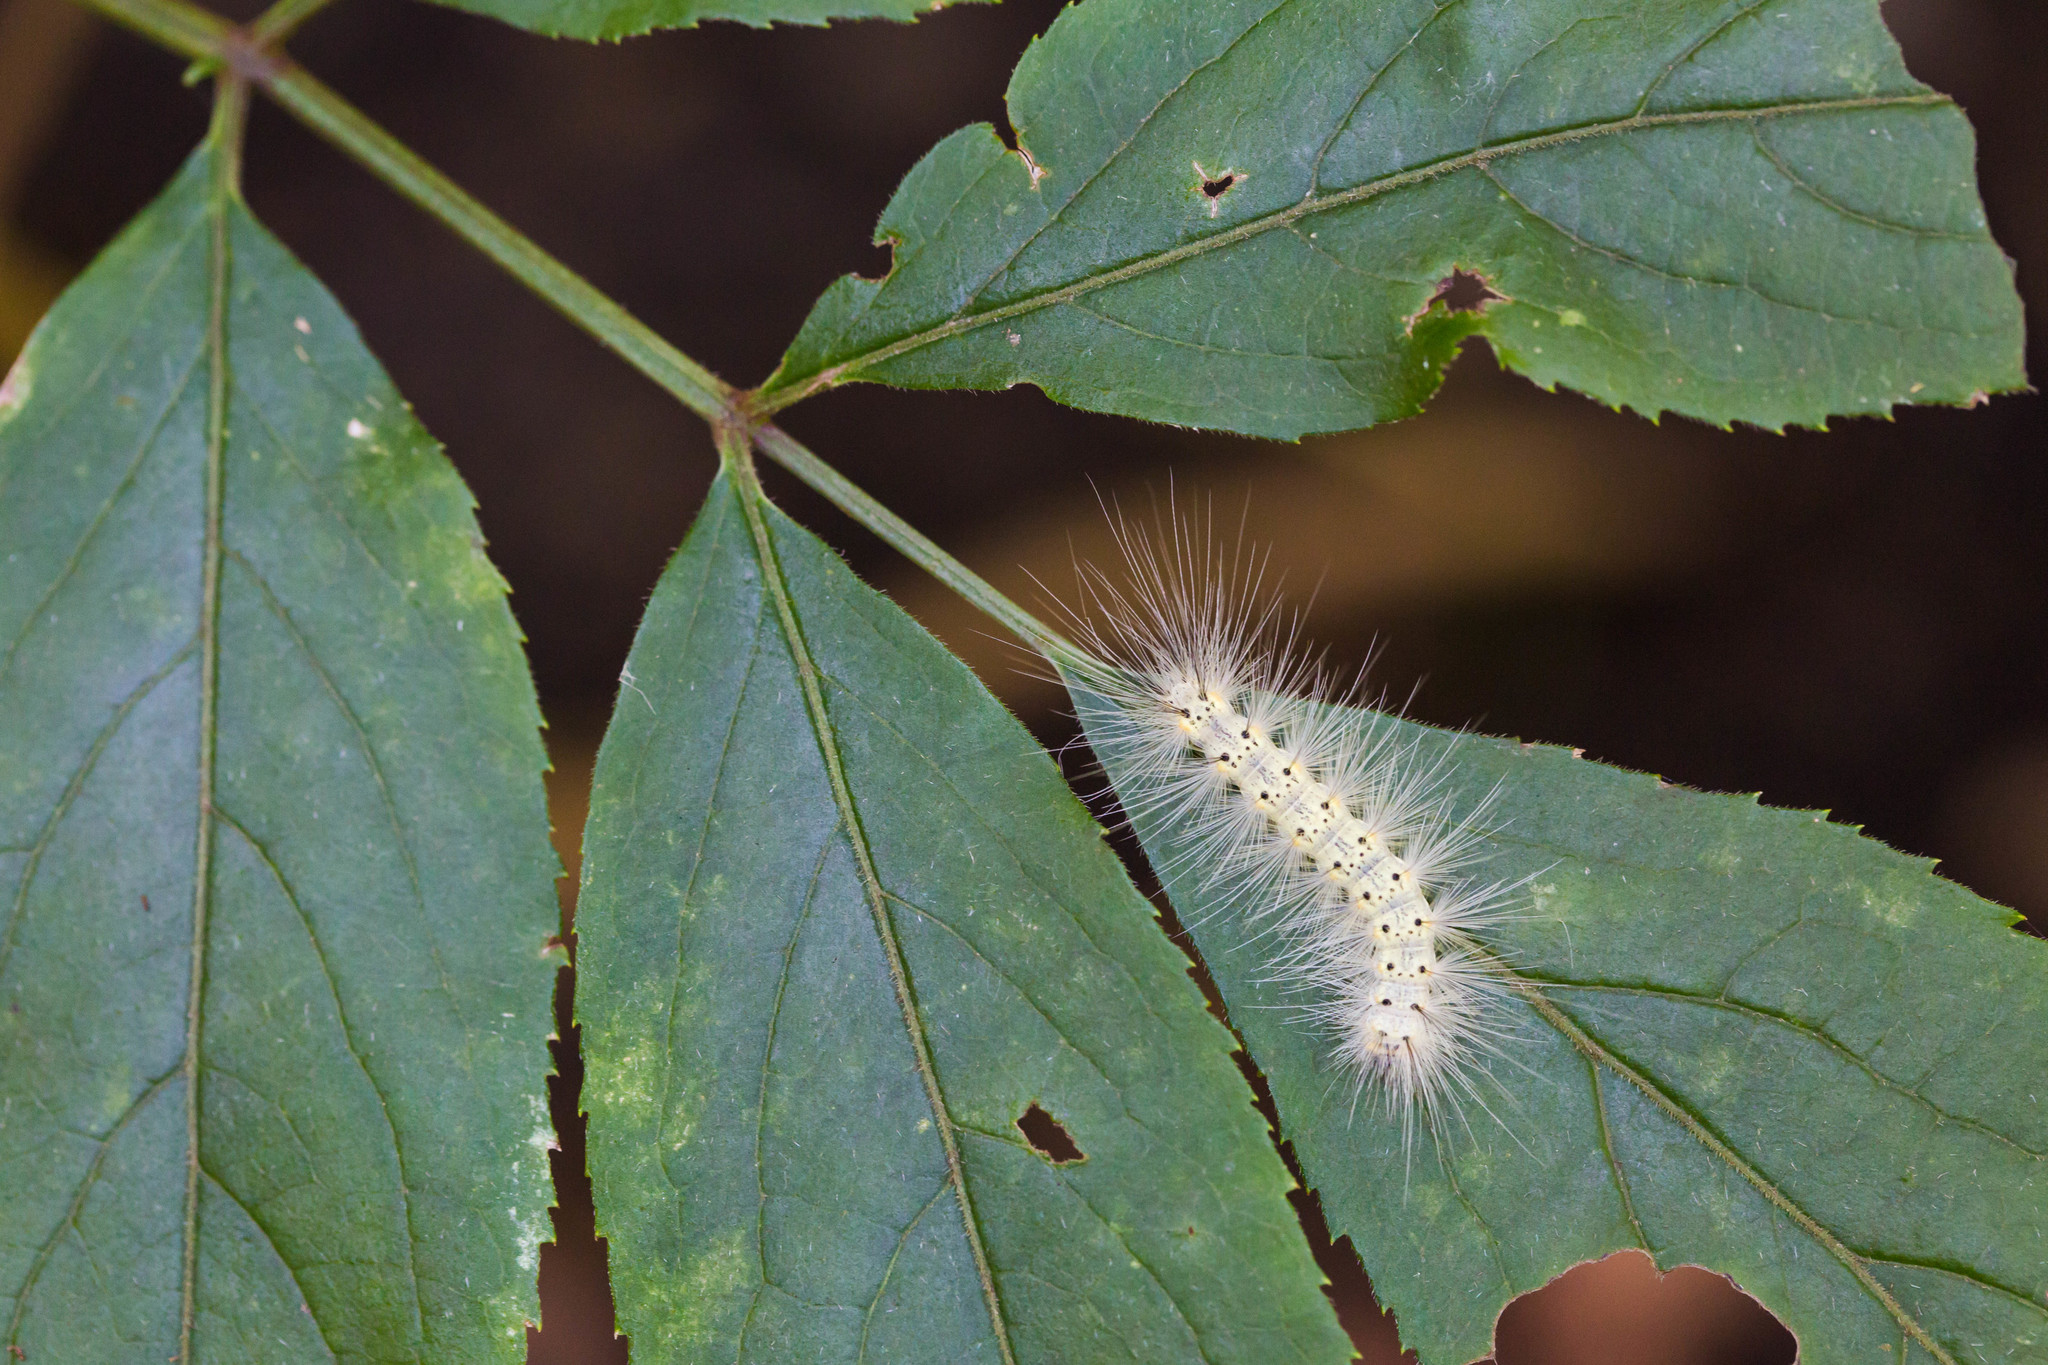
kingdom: Animalia
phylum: Arthropoda
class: Insecta
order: Lepidoptera
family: Erebidae
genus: Hyphantria
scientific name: Hyphantria cunea
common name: American white moth
